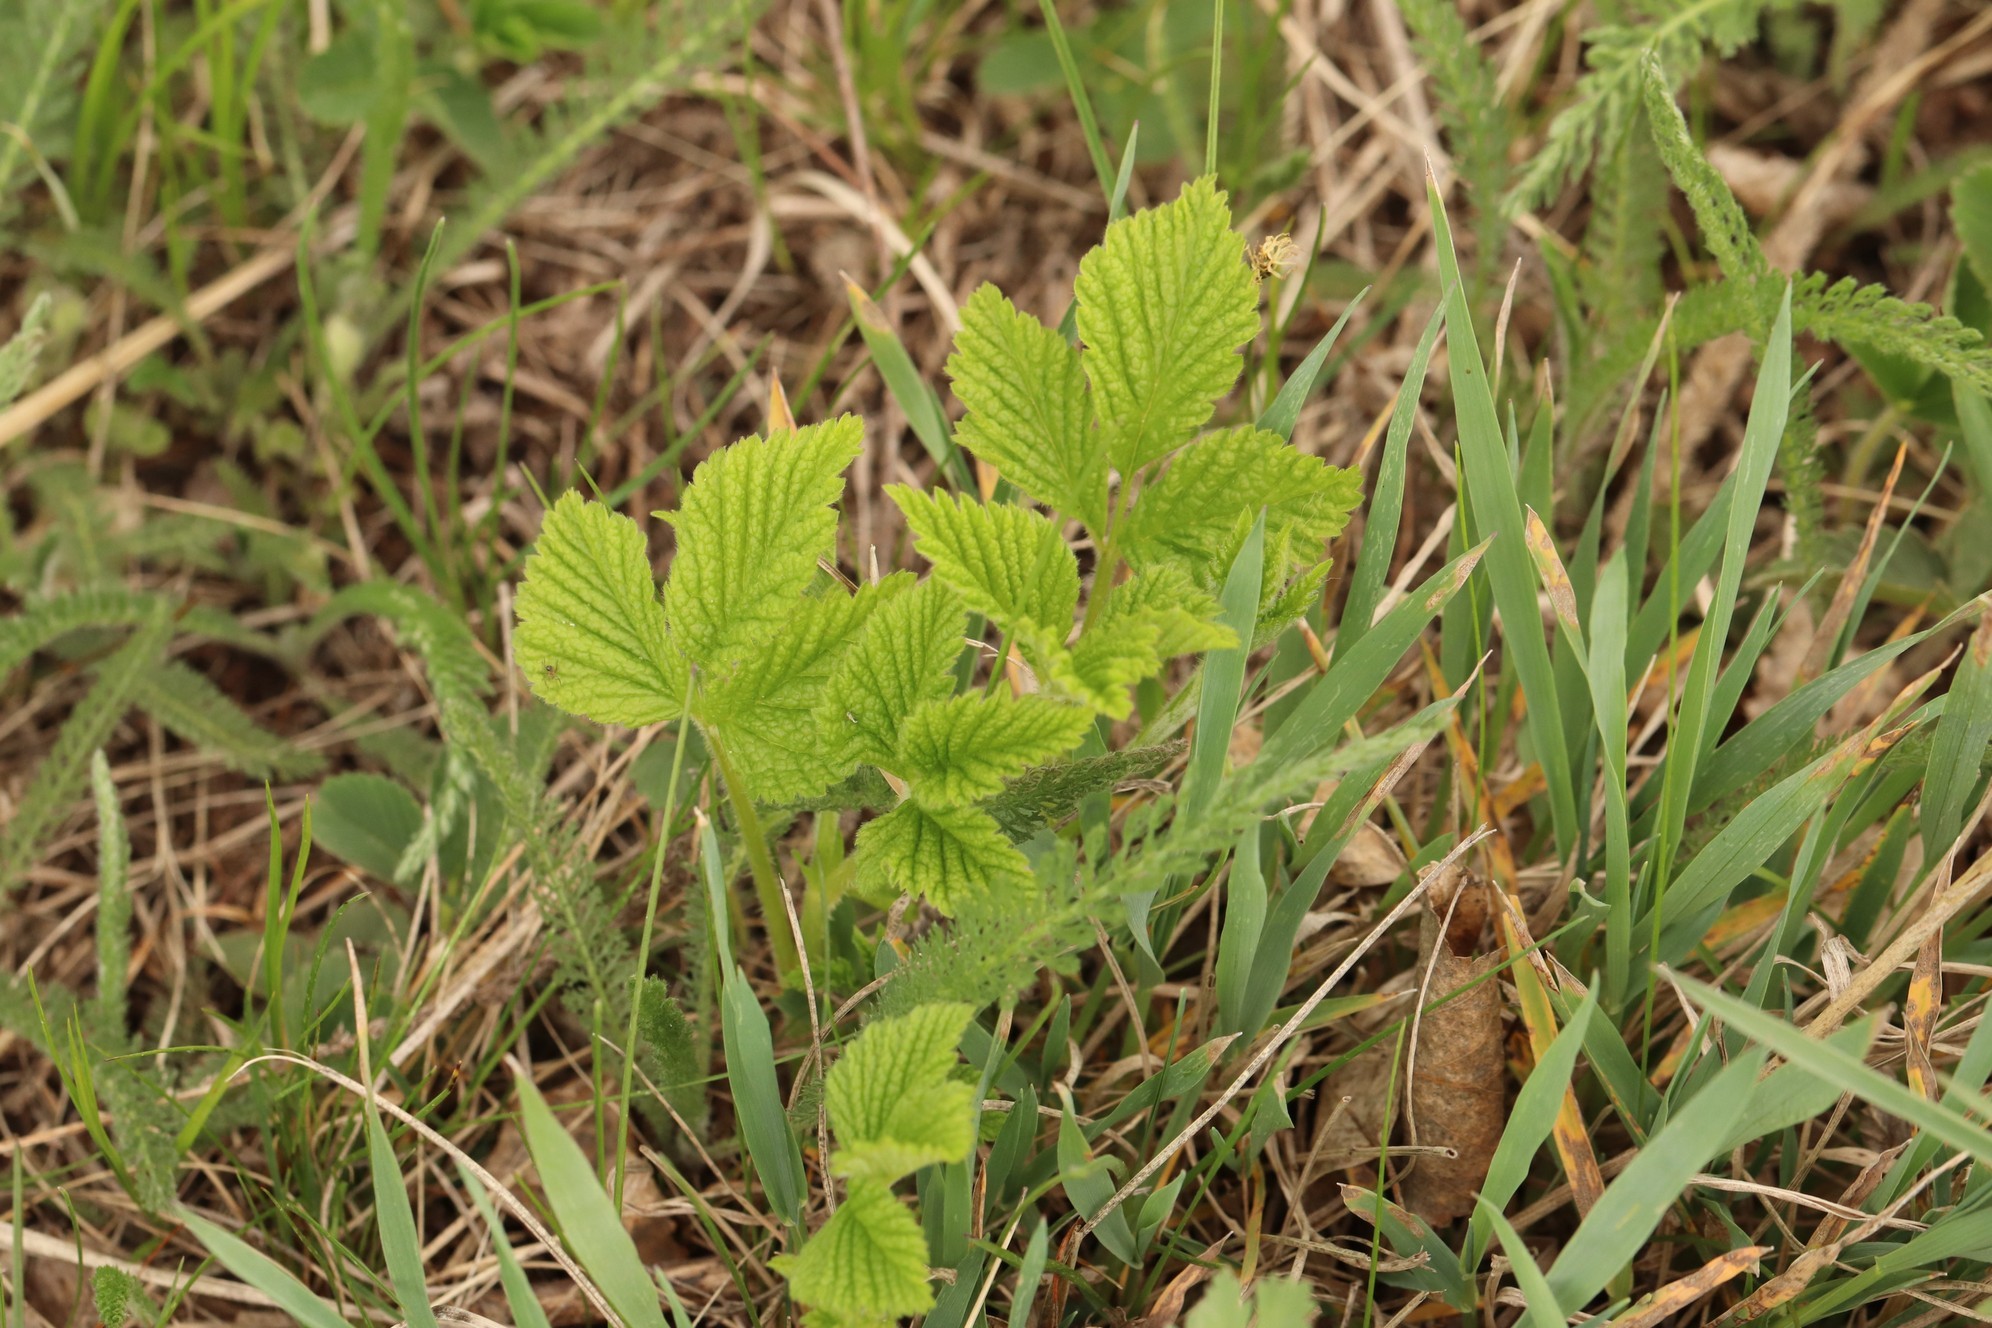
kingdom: Plantae
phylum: Tracheophyta
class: Magnoliopsida
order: Rosales
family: Rosaceae
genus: Rubus
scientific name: Rubus saxatilis
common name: Stone bramble
